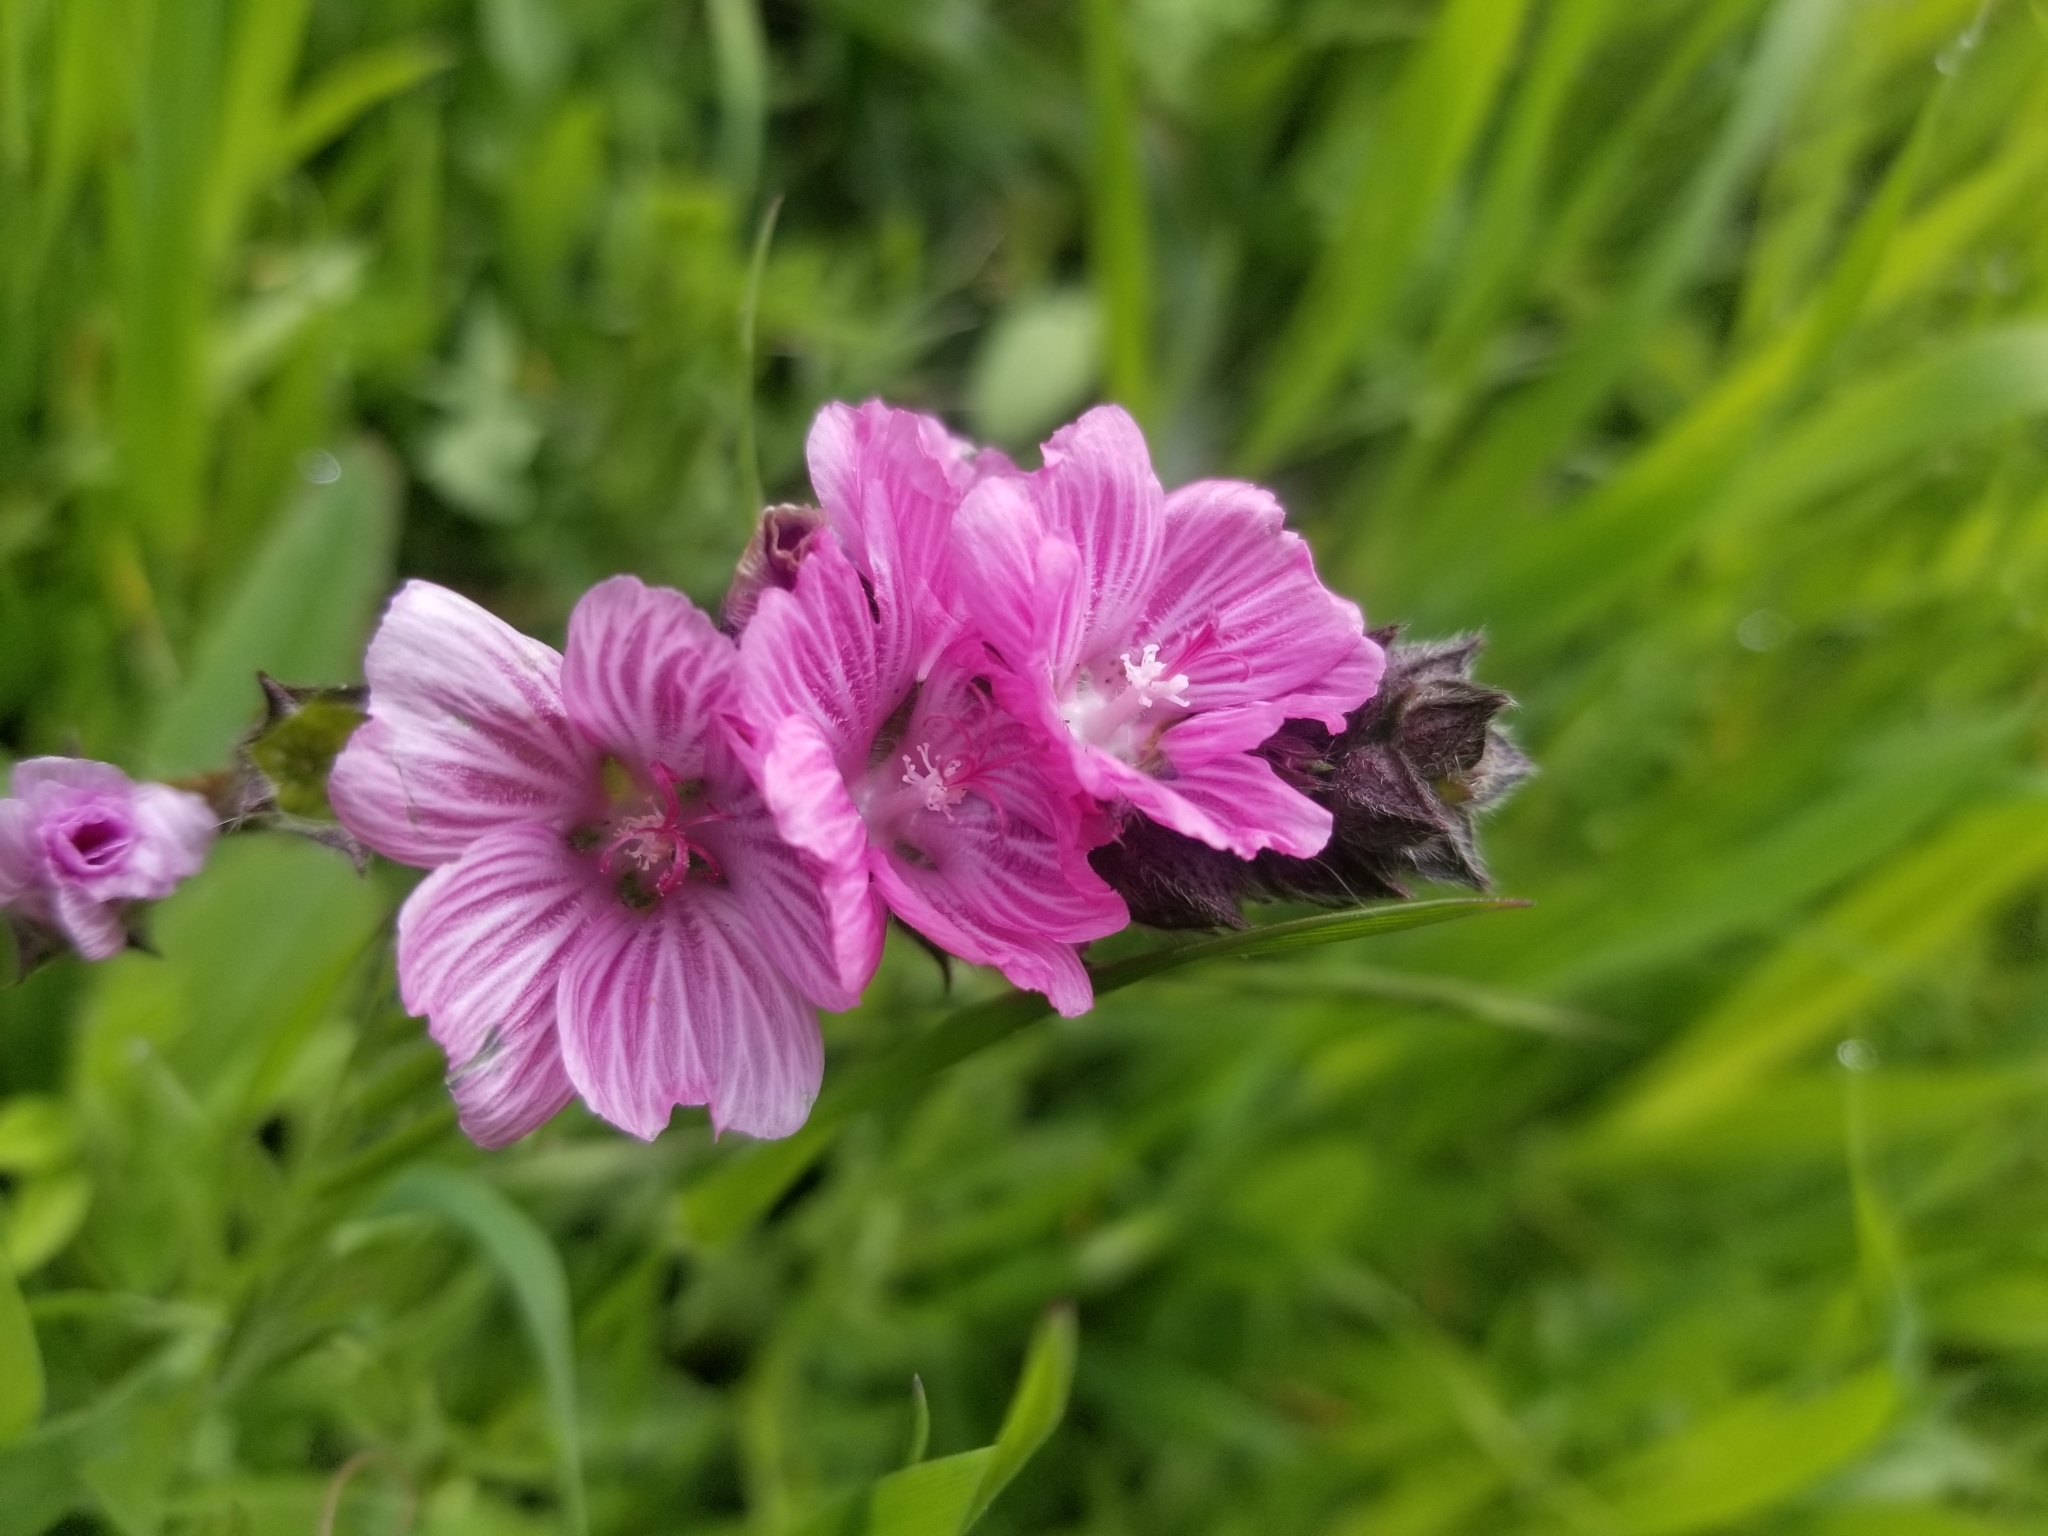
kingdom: Plantae
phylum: Tracheophyta
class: Magnoliopsida
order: Malvales
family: Malvaceae
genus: Sidalcea
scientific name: Sidalcea malviflora
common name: Greek mallow
